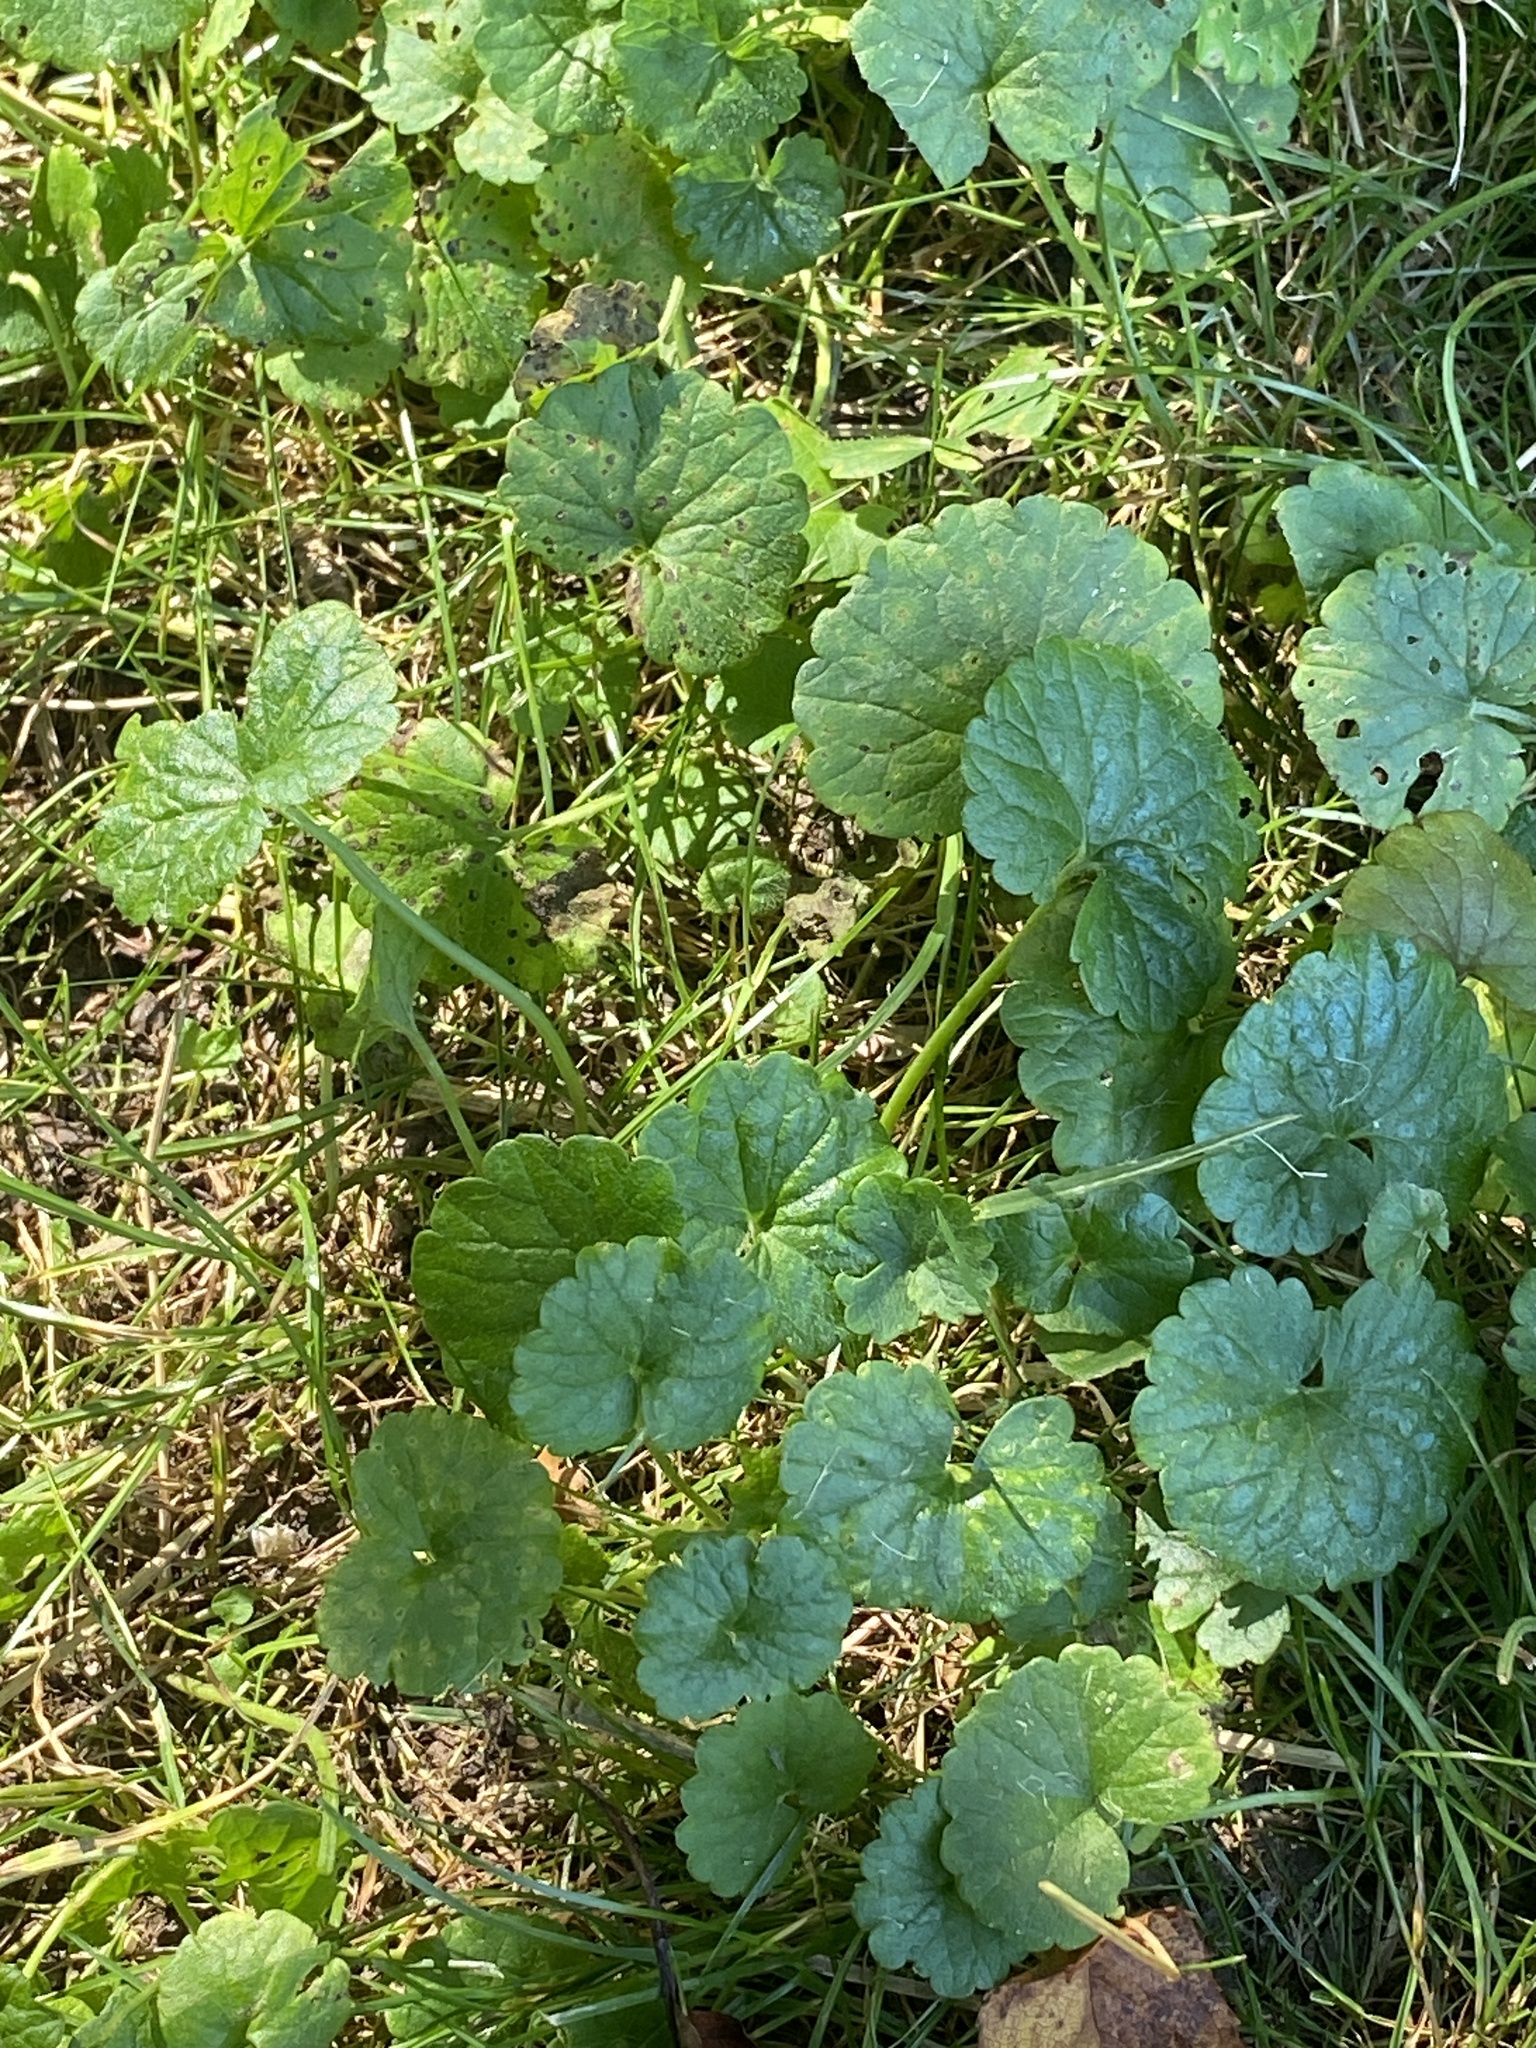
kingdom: Plantae
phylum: Tracheophyta
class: Magnoliopsida
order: Lamiales
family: Lamiaceae
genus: Glechoma
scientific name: Glechoma hederacea
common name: Ground ivy
